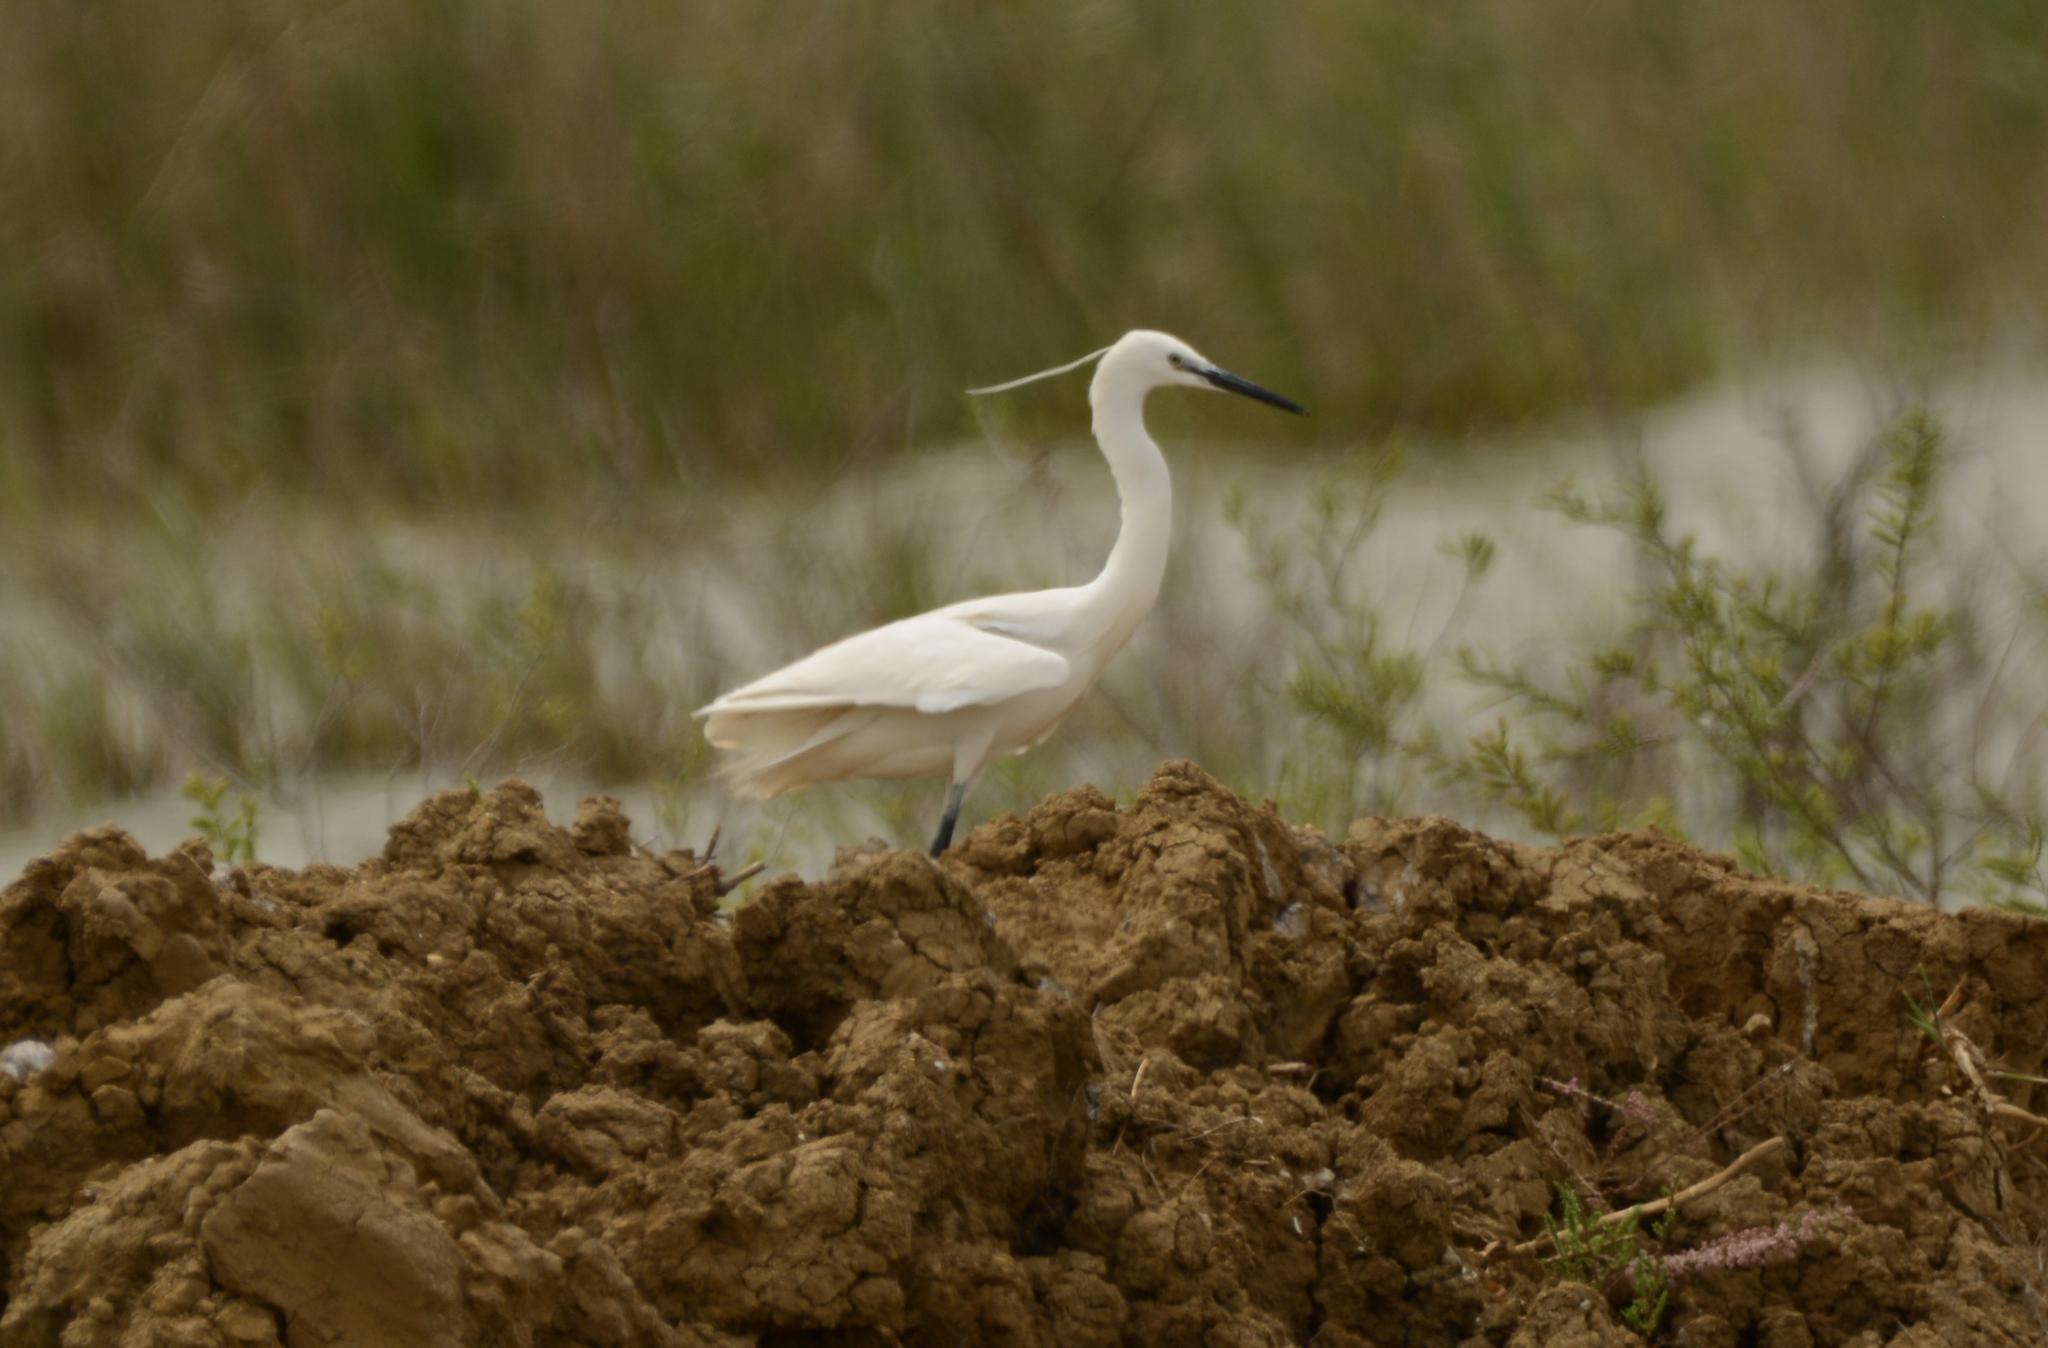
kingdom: Animalia
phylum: Chordata
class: Aves
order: Pelecaniformes
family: Ardeidae
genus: Egretta
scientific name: Egretta garzetta
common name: Little egret
